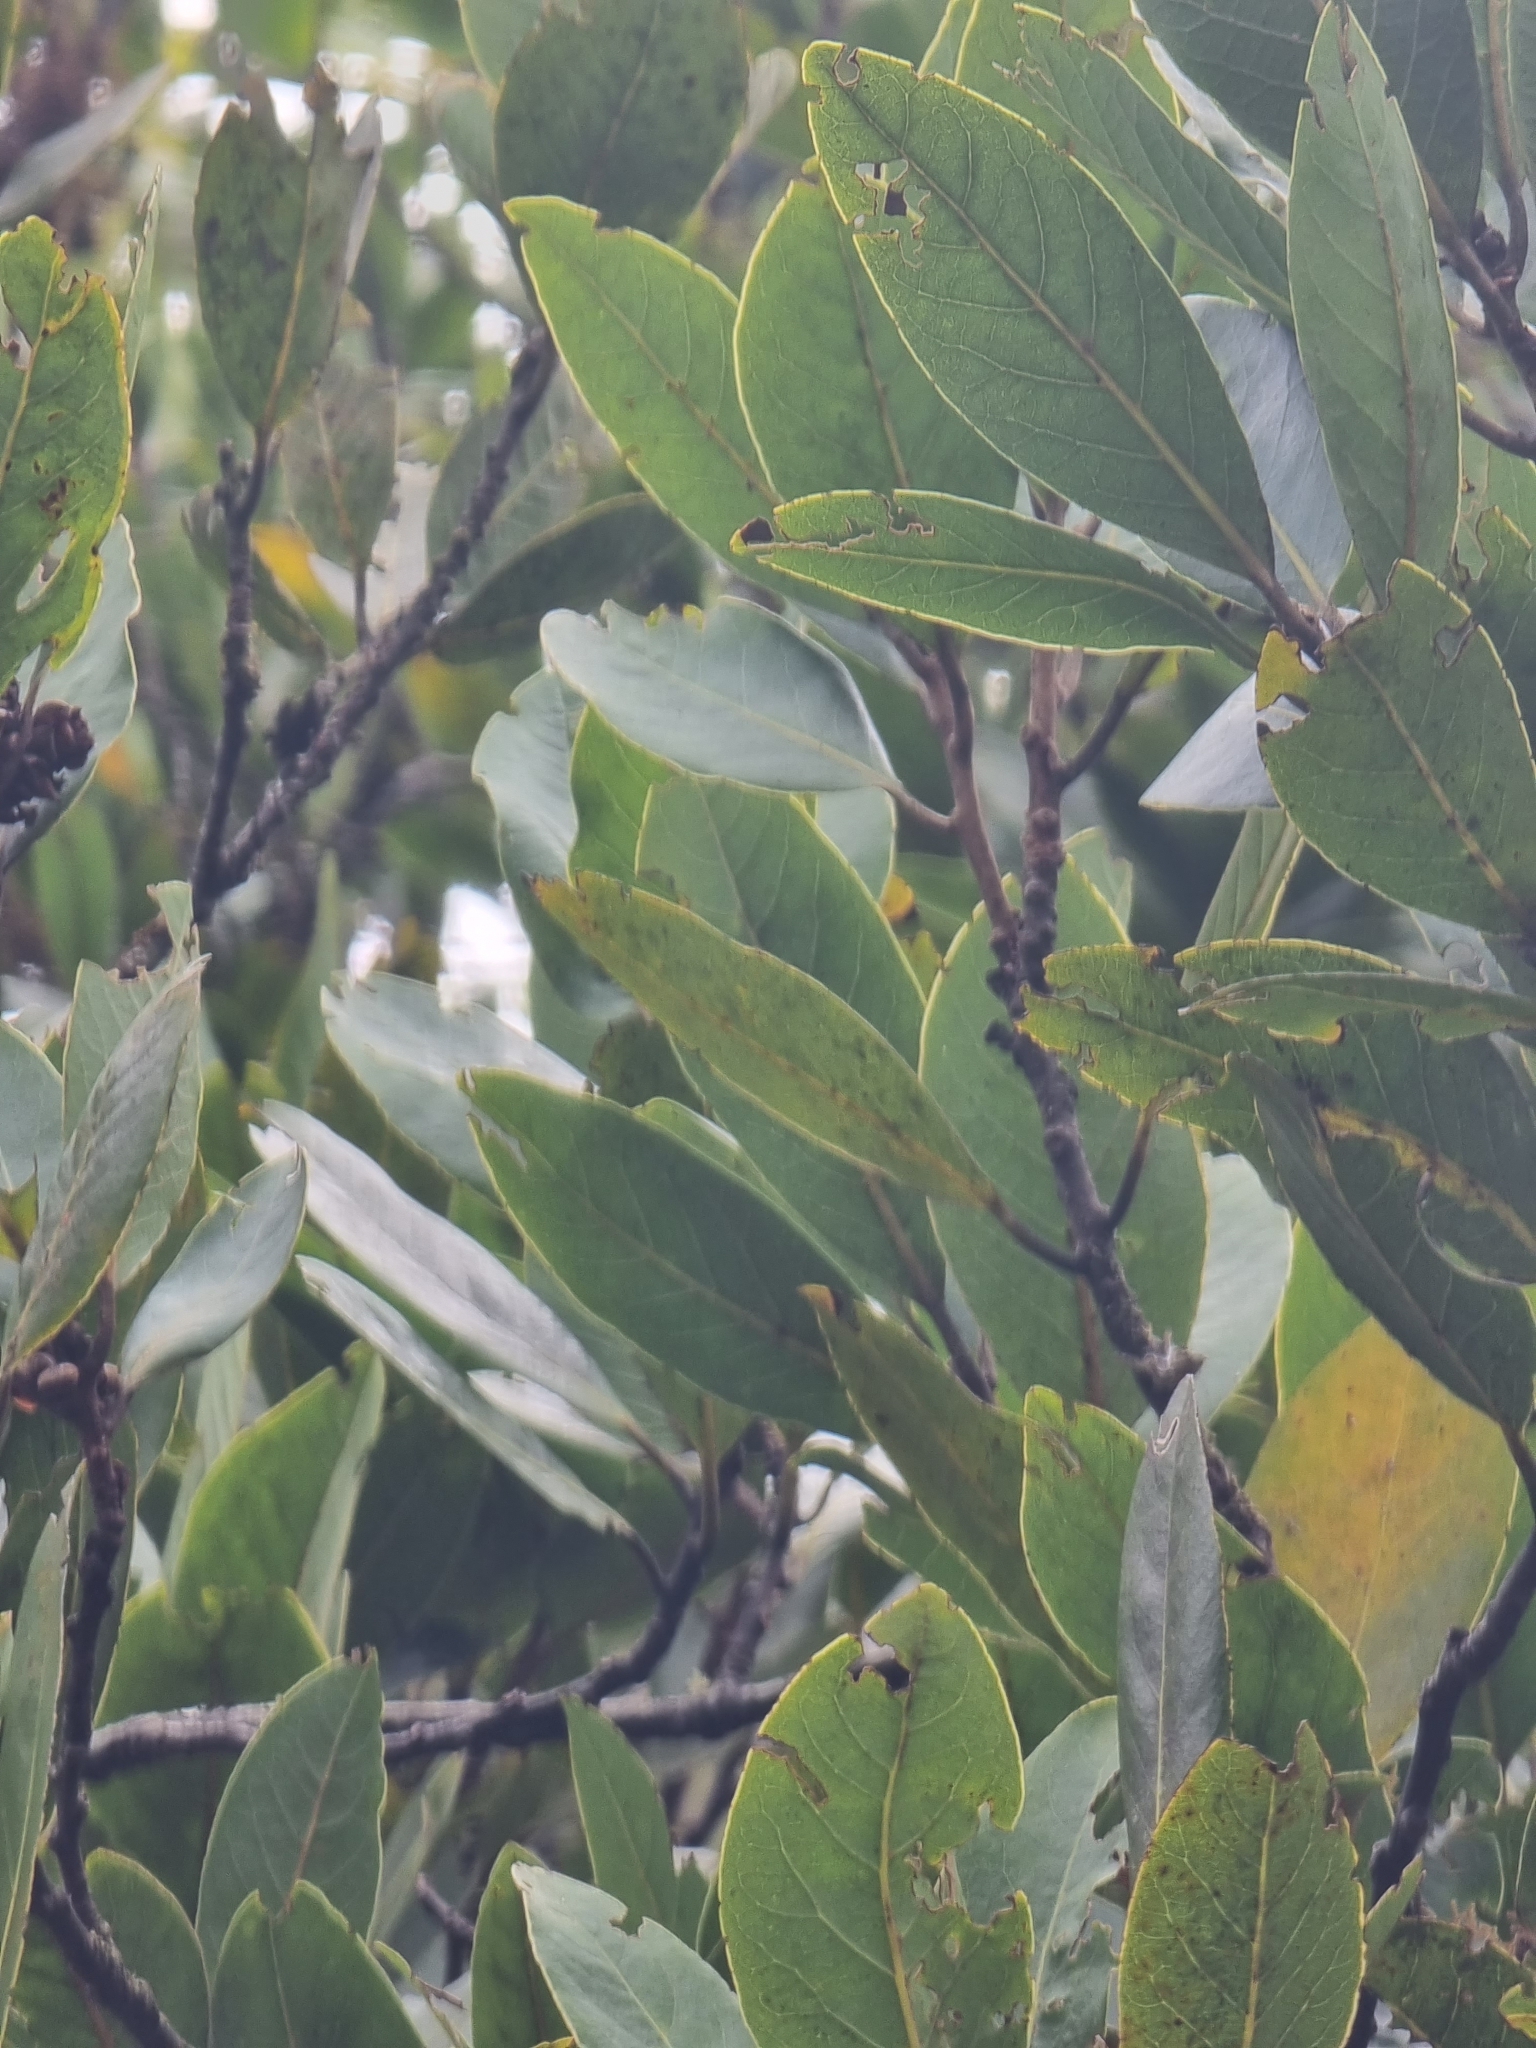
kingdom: Plantae
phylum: Tracheophyta
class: Magnoliopsida
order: Laurales
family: Lauraceae
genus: Laurus
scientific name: Laurus novocanariensis
